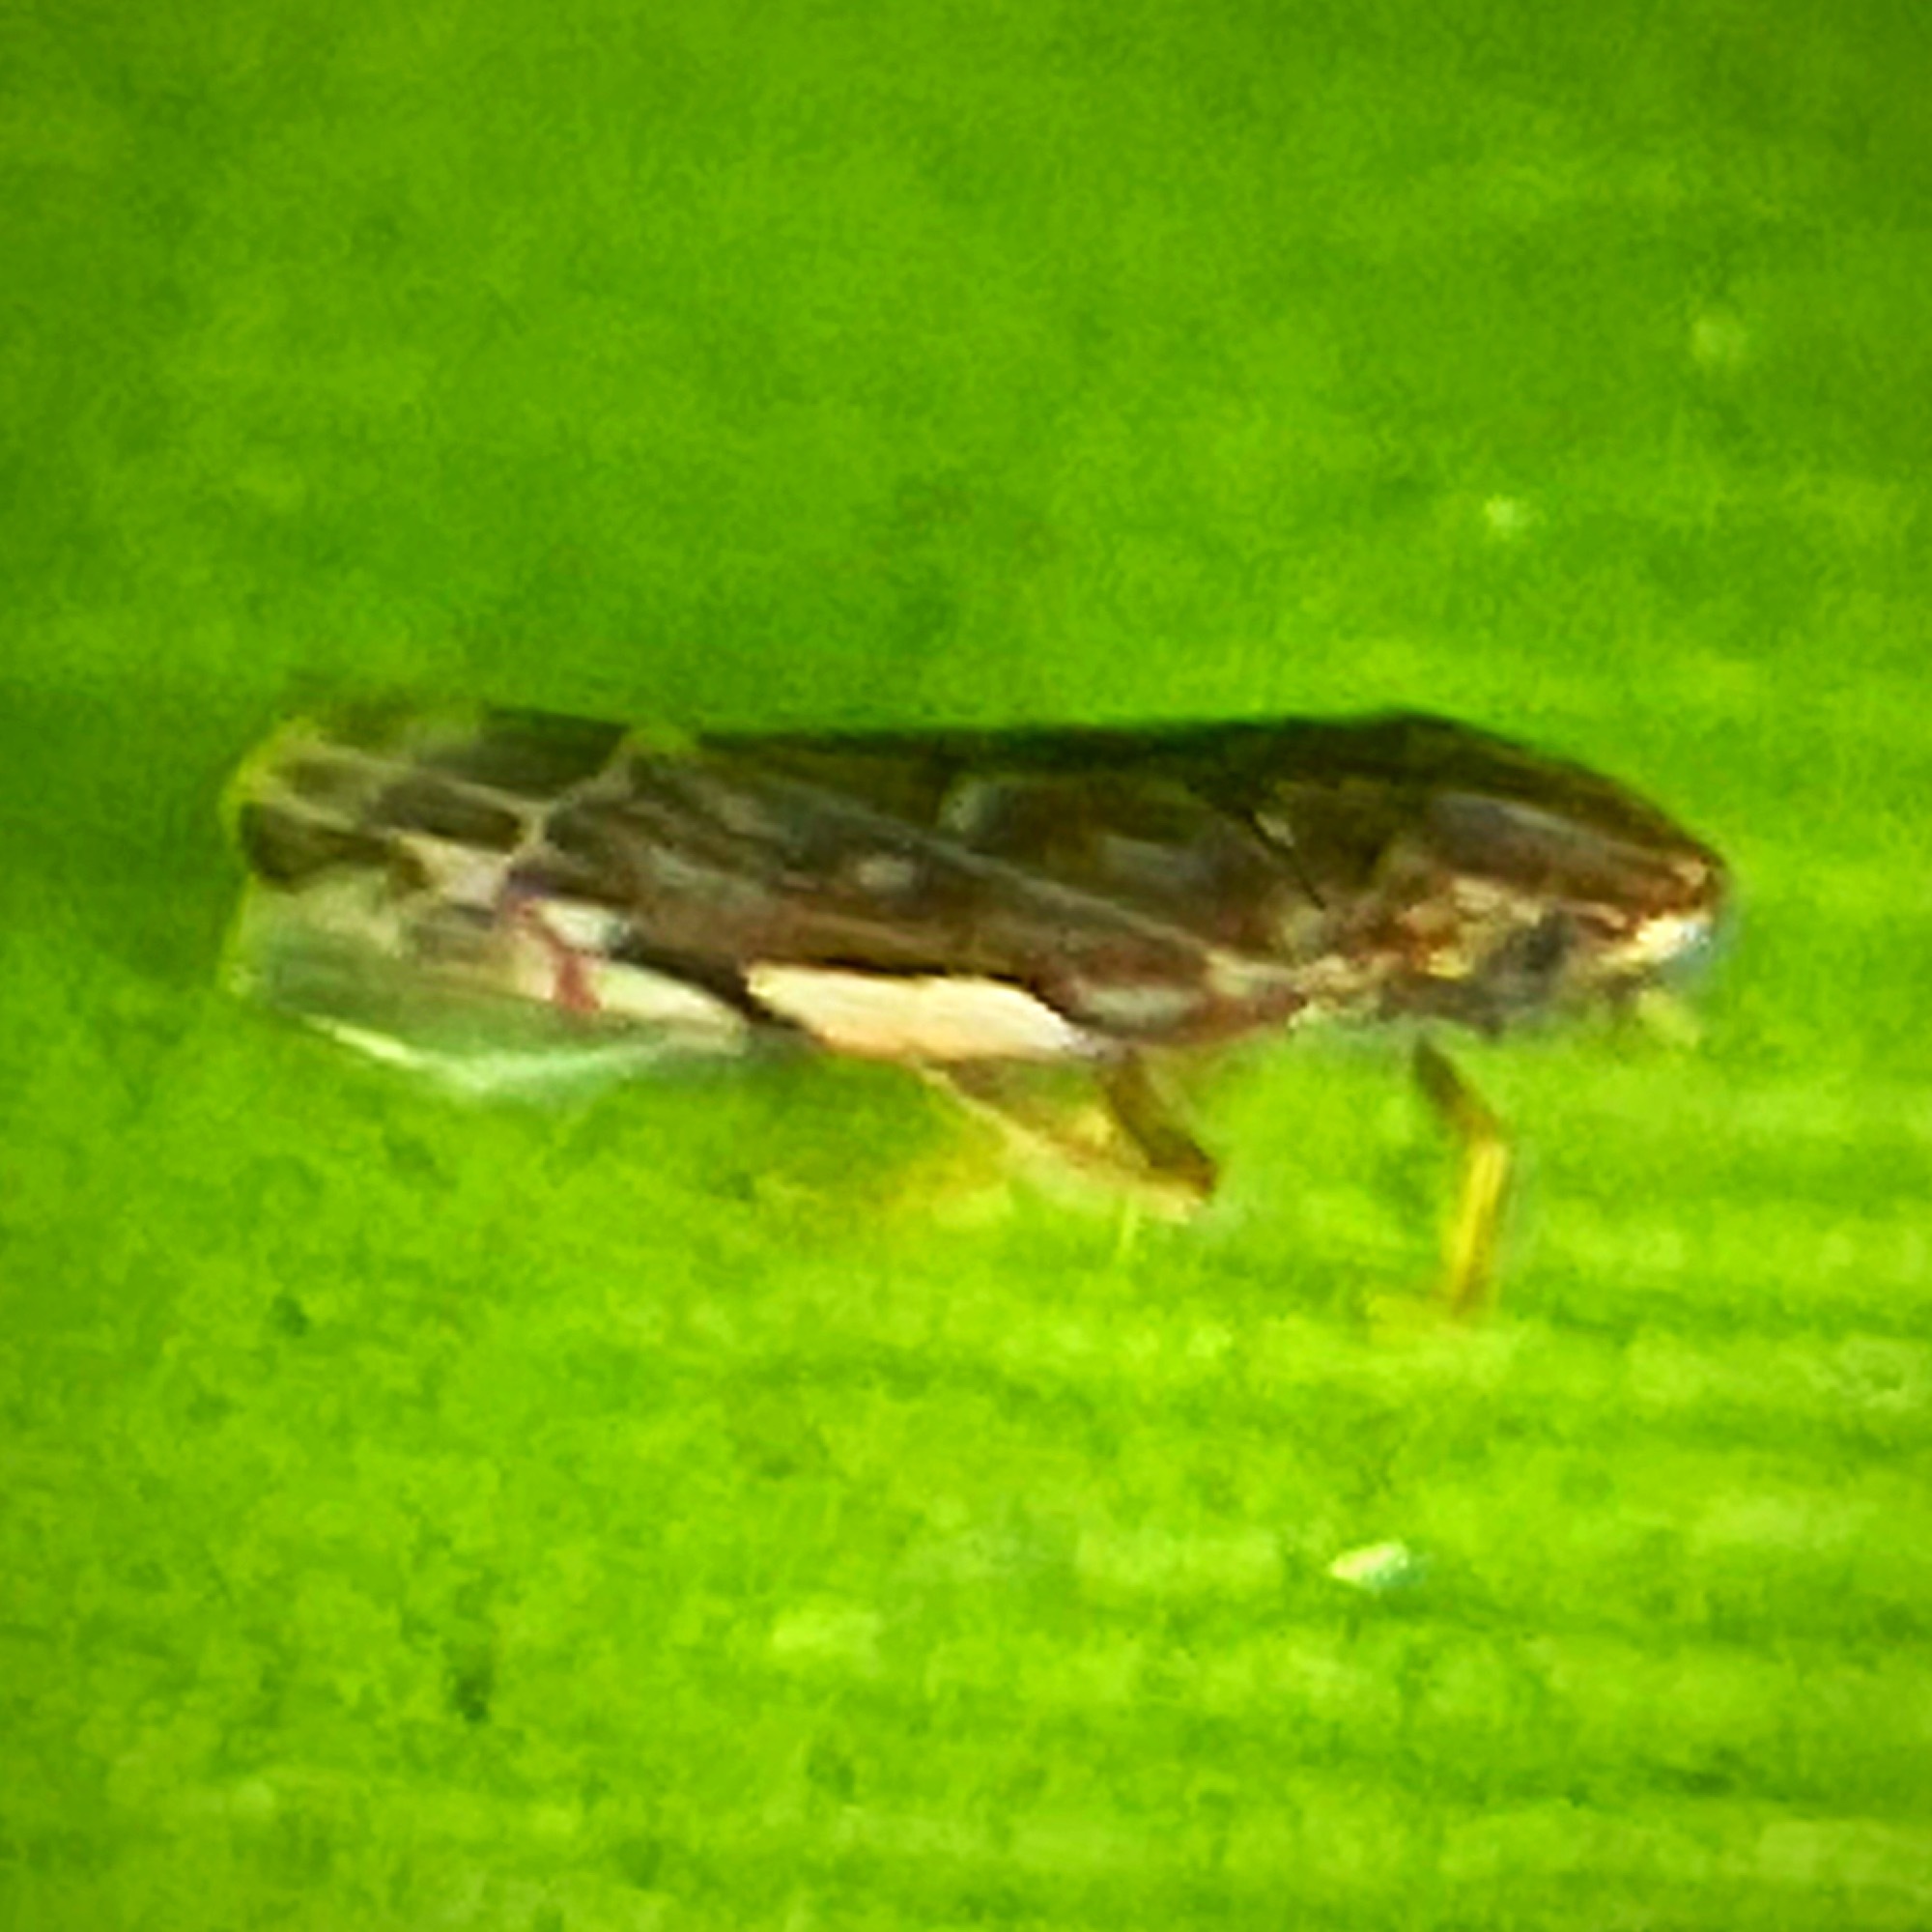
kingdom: Animalia
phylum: Arthropoda
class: Insecta
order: Hemiptera
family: Cicadellidae
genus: Erasmoneura
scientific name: Erasmoneura vulnerata
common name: The wounded leafhopper
